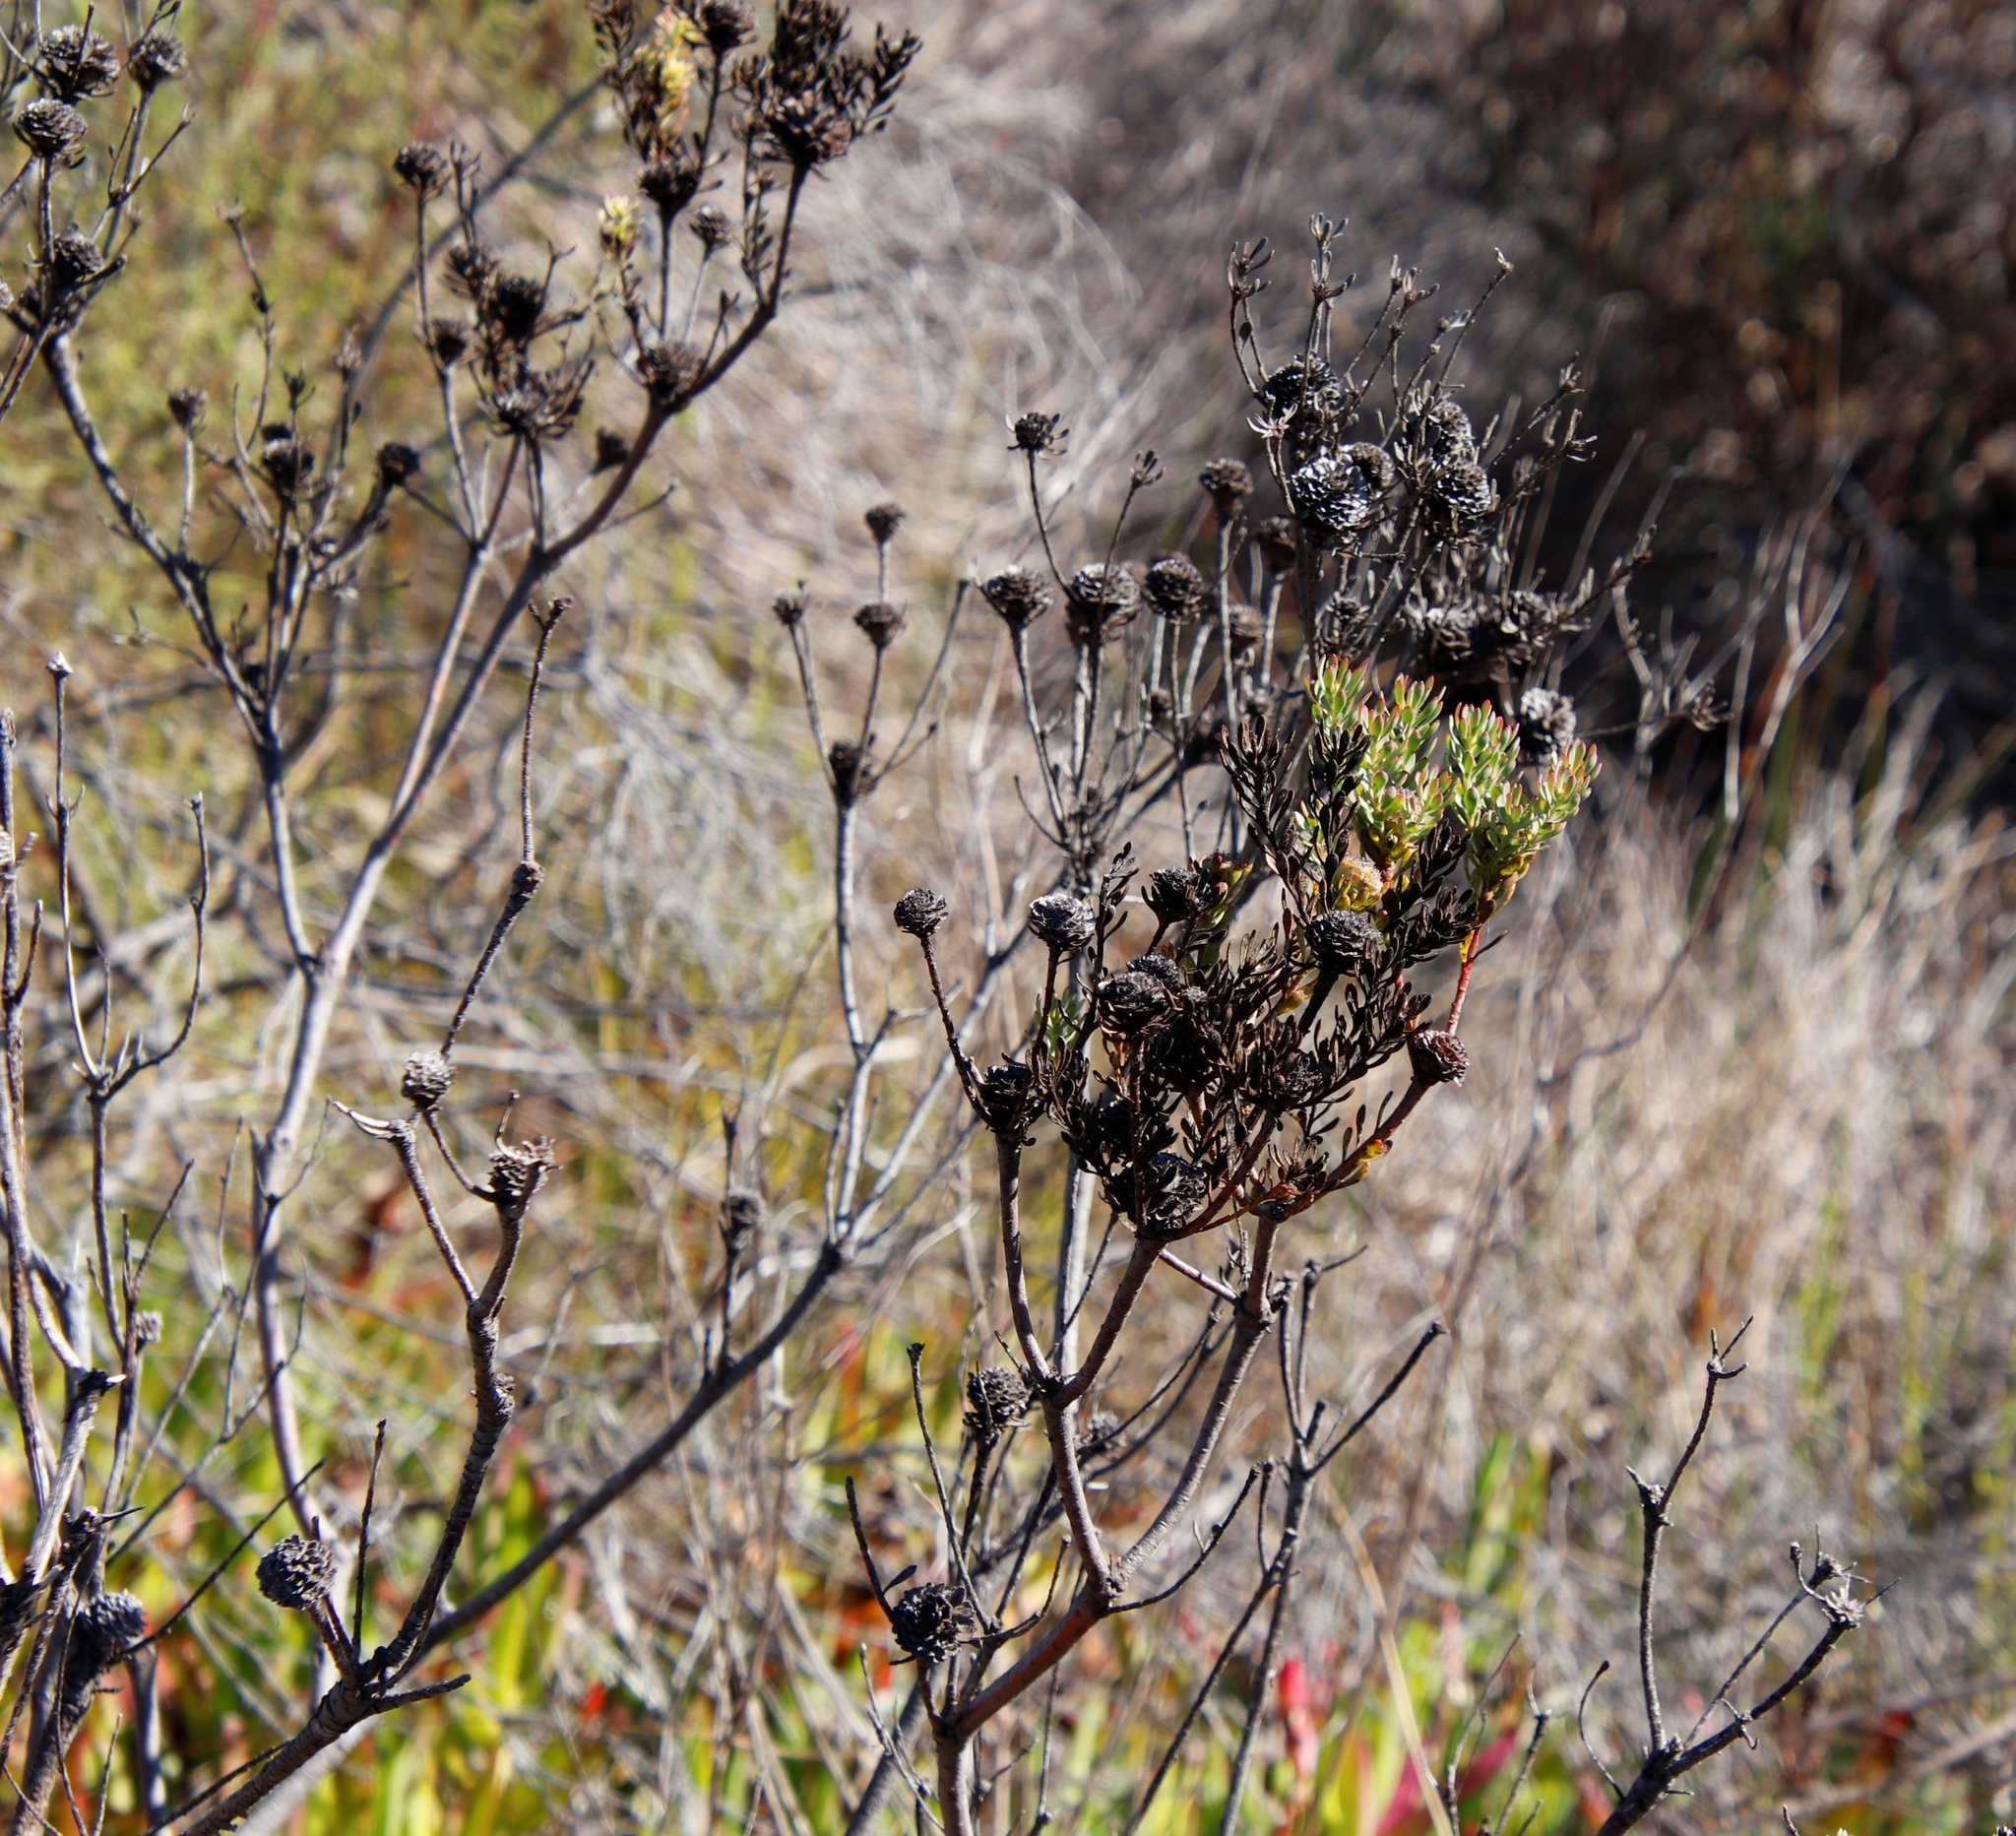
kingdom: Plantae
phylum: Tracheophyta
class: Magnoliopsida
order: Proteales
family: Proteaceae
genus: Leucadendron
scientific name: Leucadendron levisanus
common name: Cape flats conebush
